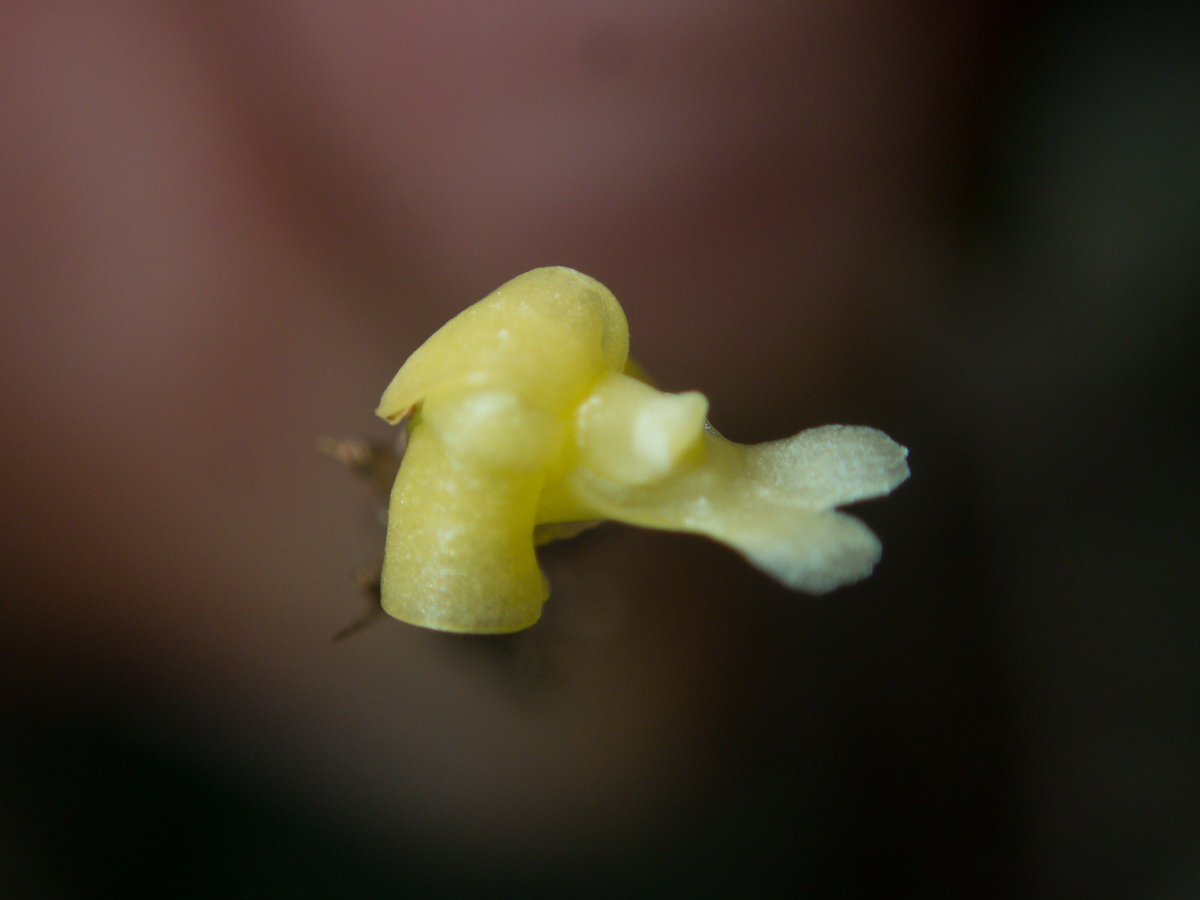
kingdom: Plantae
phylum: Tracheophyta
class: Liliopsida
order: Asparagales
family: Orchidaceae
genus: Dendrobium
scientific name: Dendrobium aloifolium
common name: Aloe-like dendrobium
